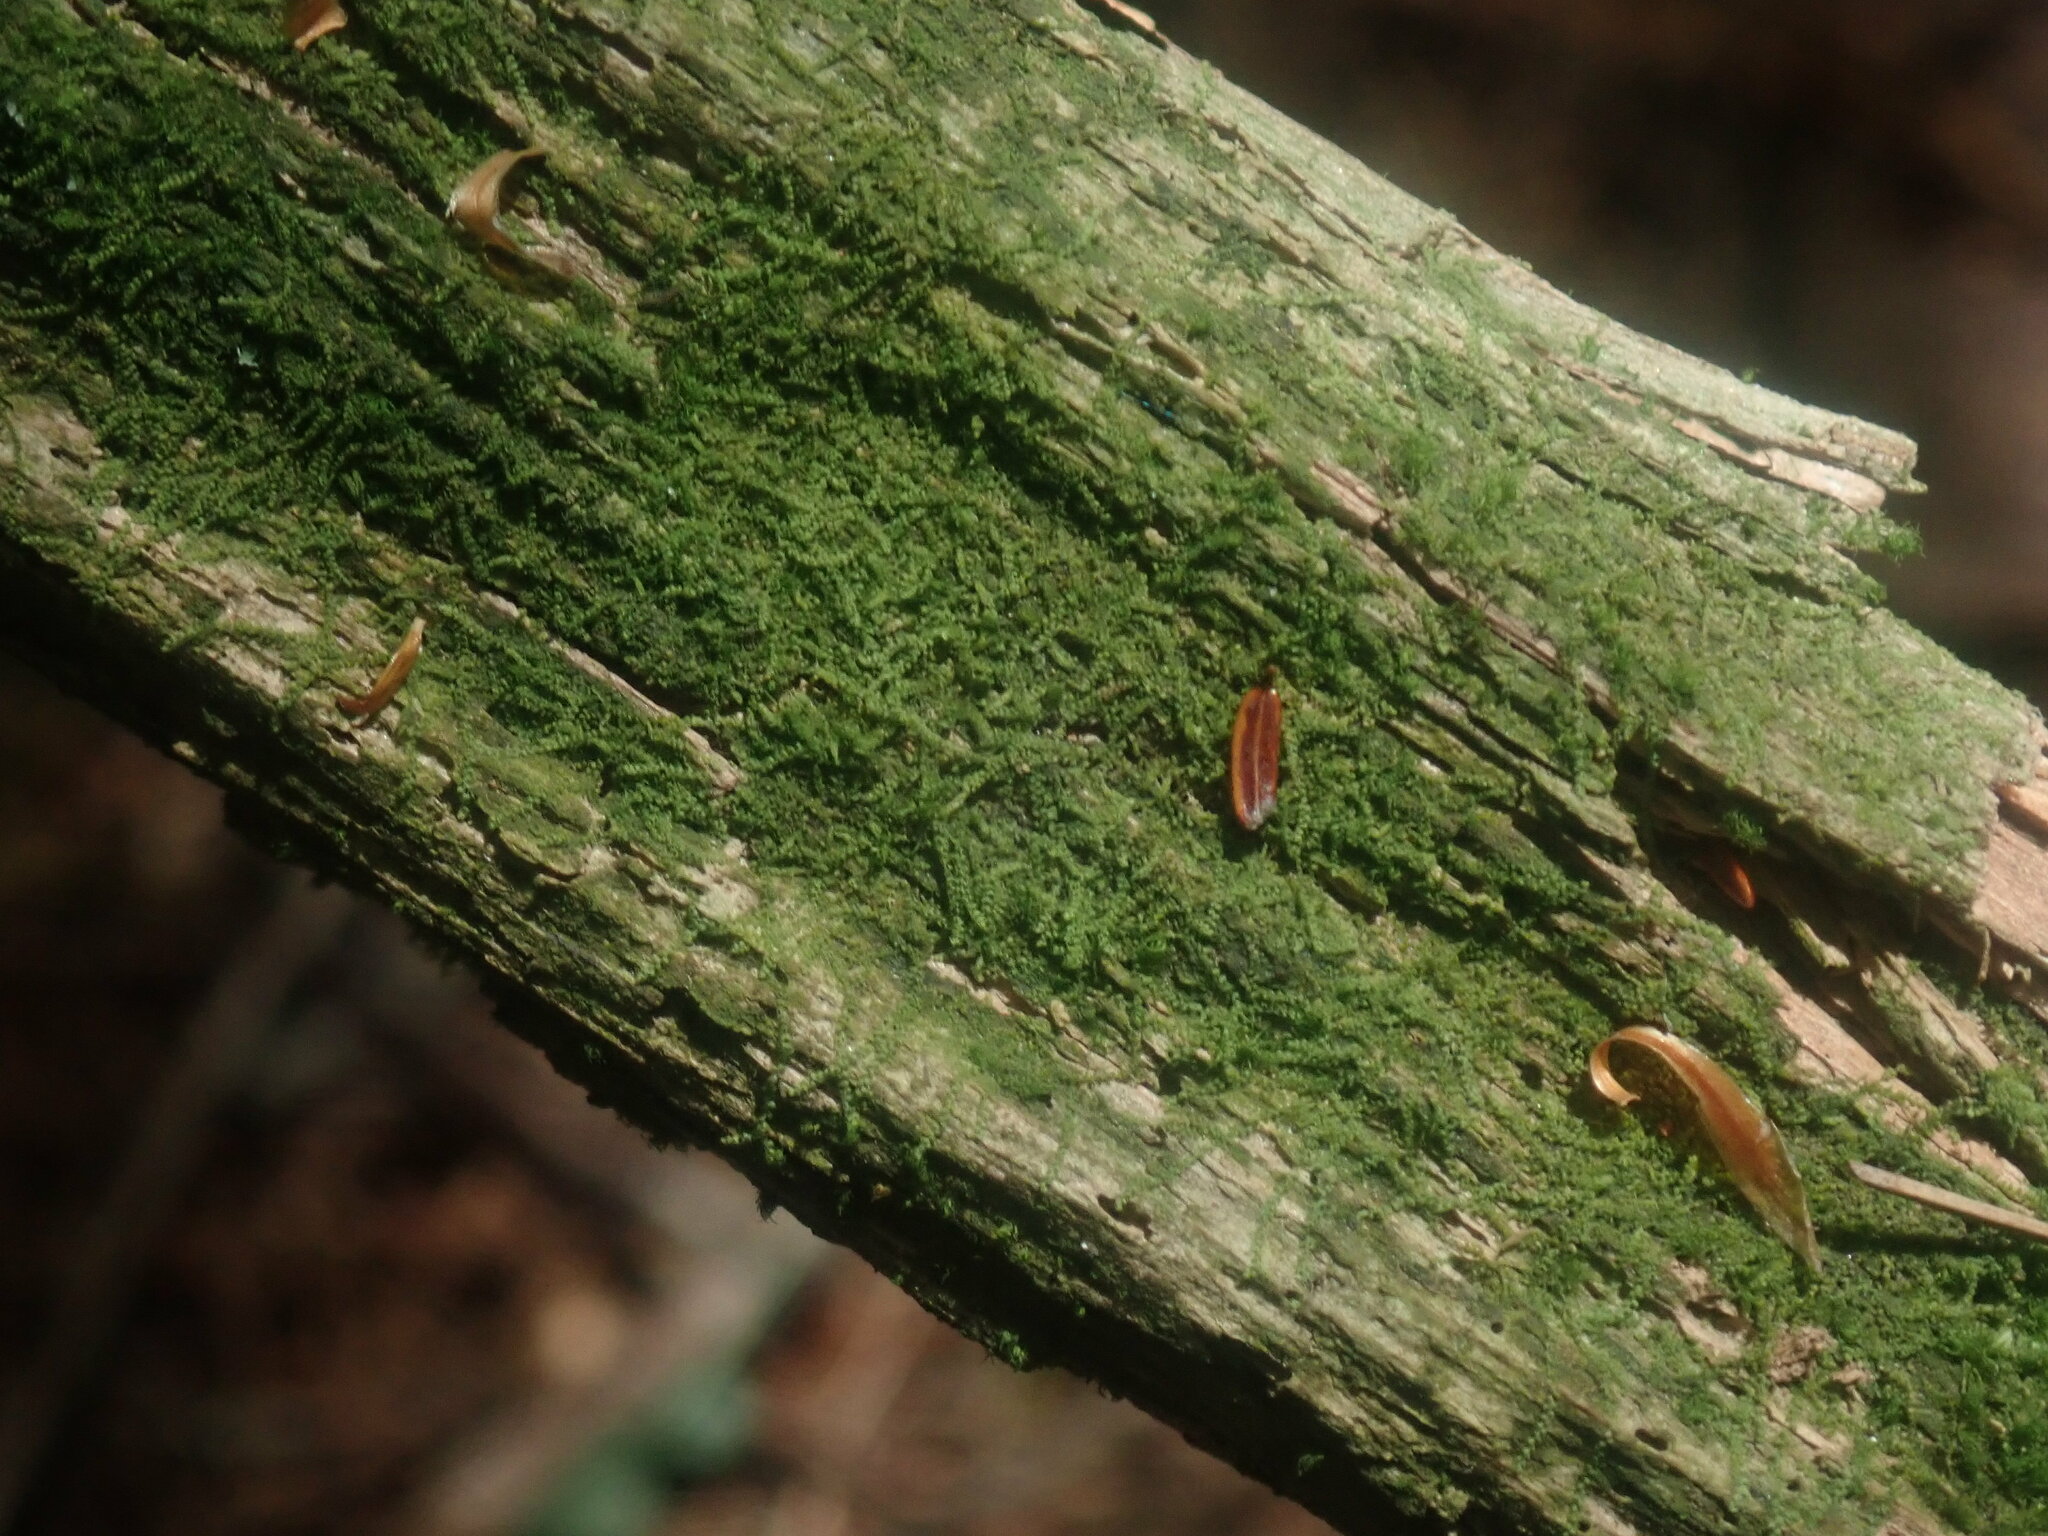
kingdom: Plantae
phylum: Marchantiophyta
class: Jungermanniopsida
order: Jungermanniales
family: Cephaloziaceae
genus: Nowellia
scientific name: Nowellia curvifolia
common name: Wood rustwort
